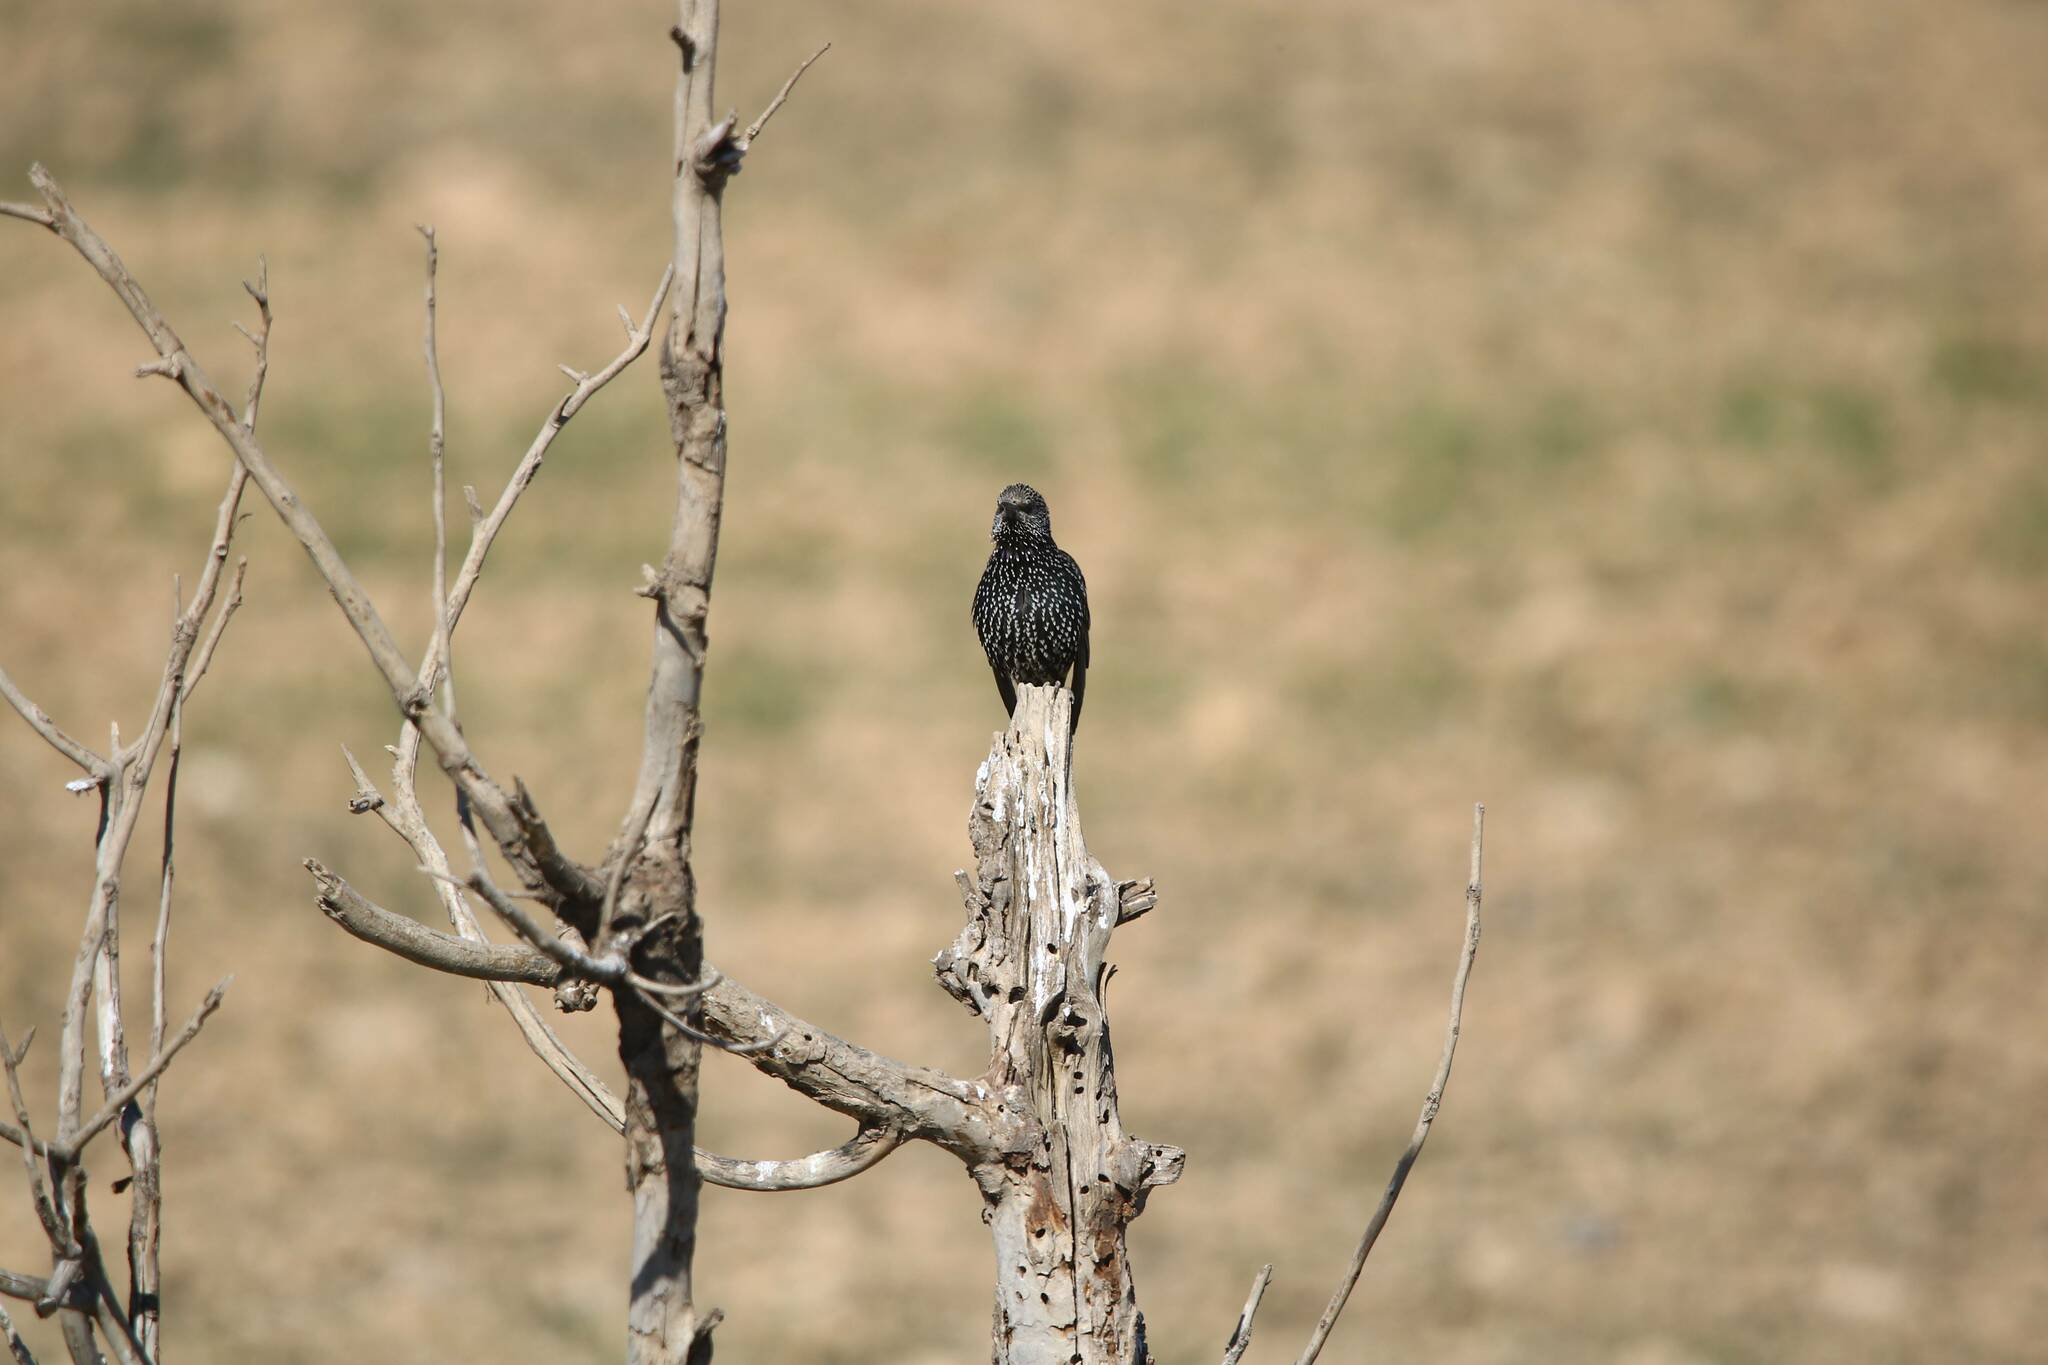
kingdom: Animalia
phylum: Chordata
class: Aves
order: Passeriformes
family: Sturnidae
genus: Sturnus
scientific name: Sturnus vulgaris
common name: Common starling
